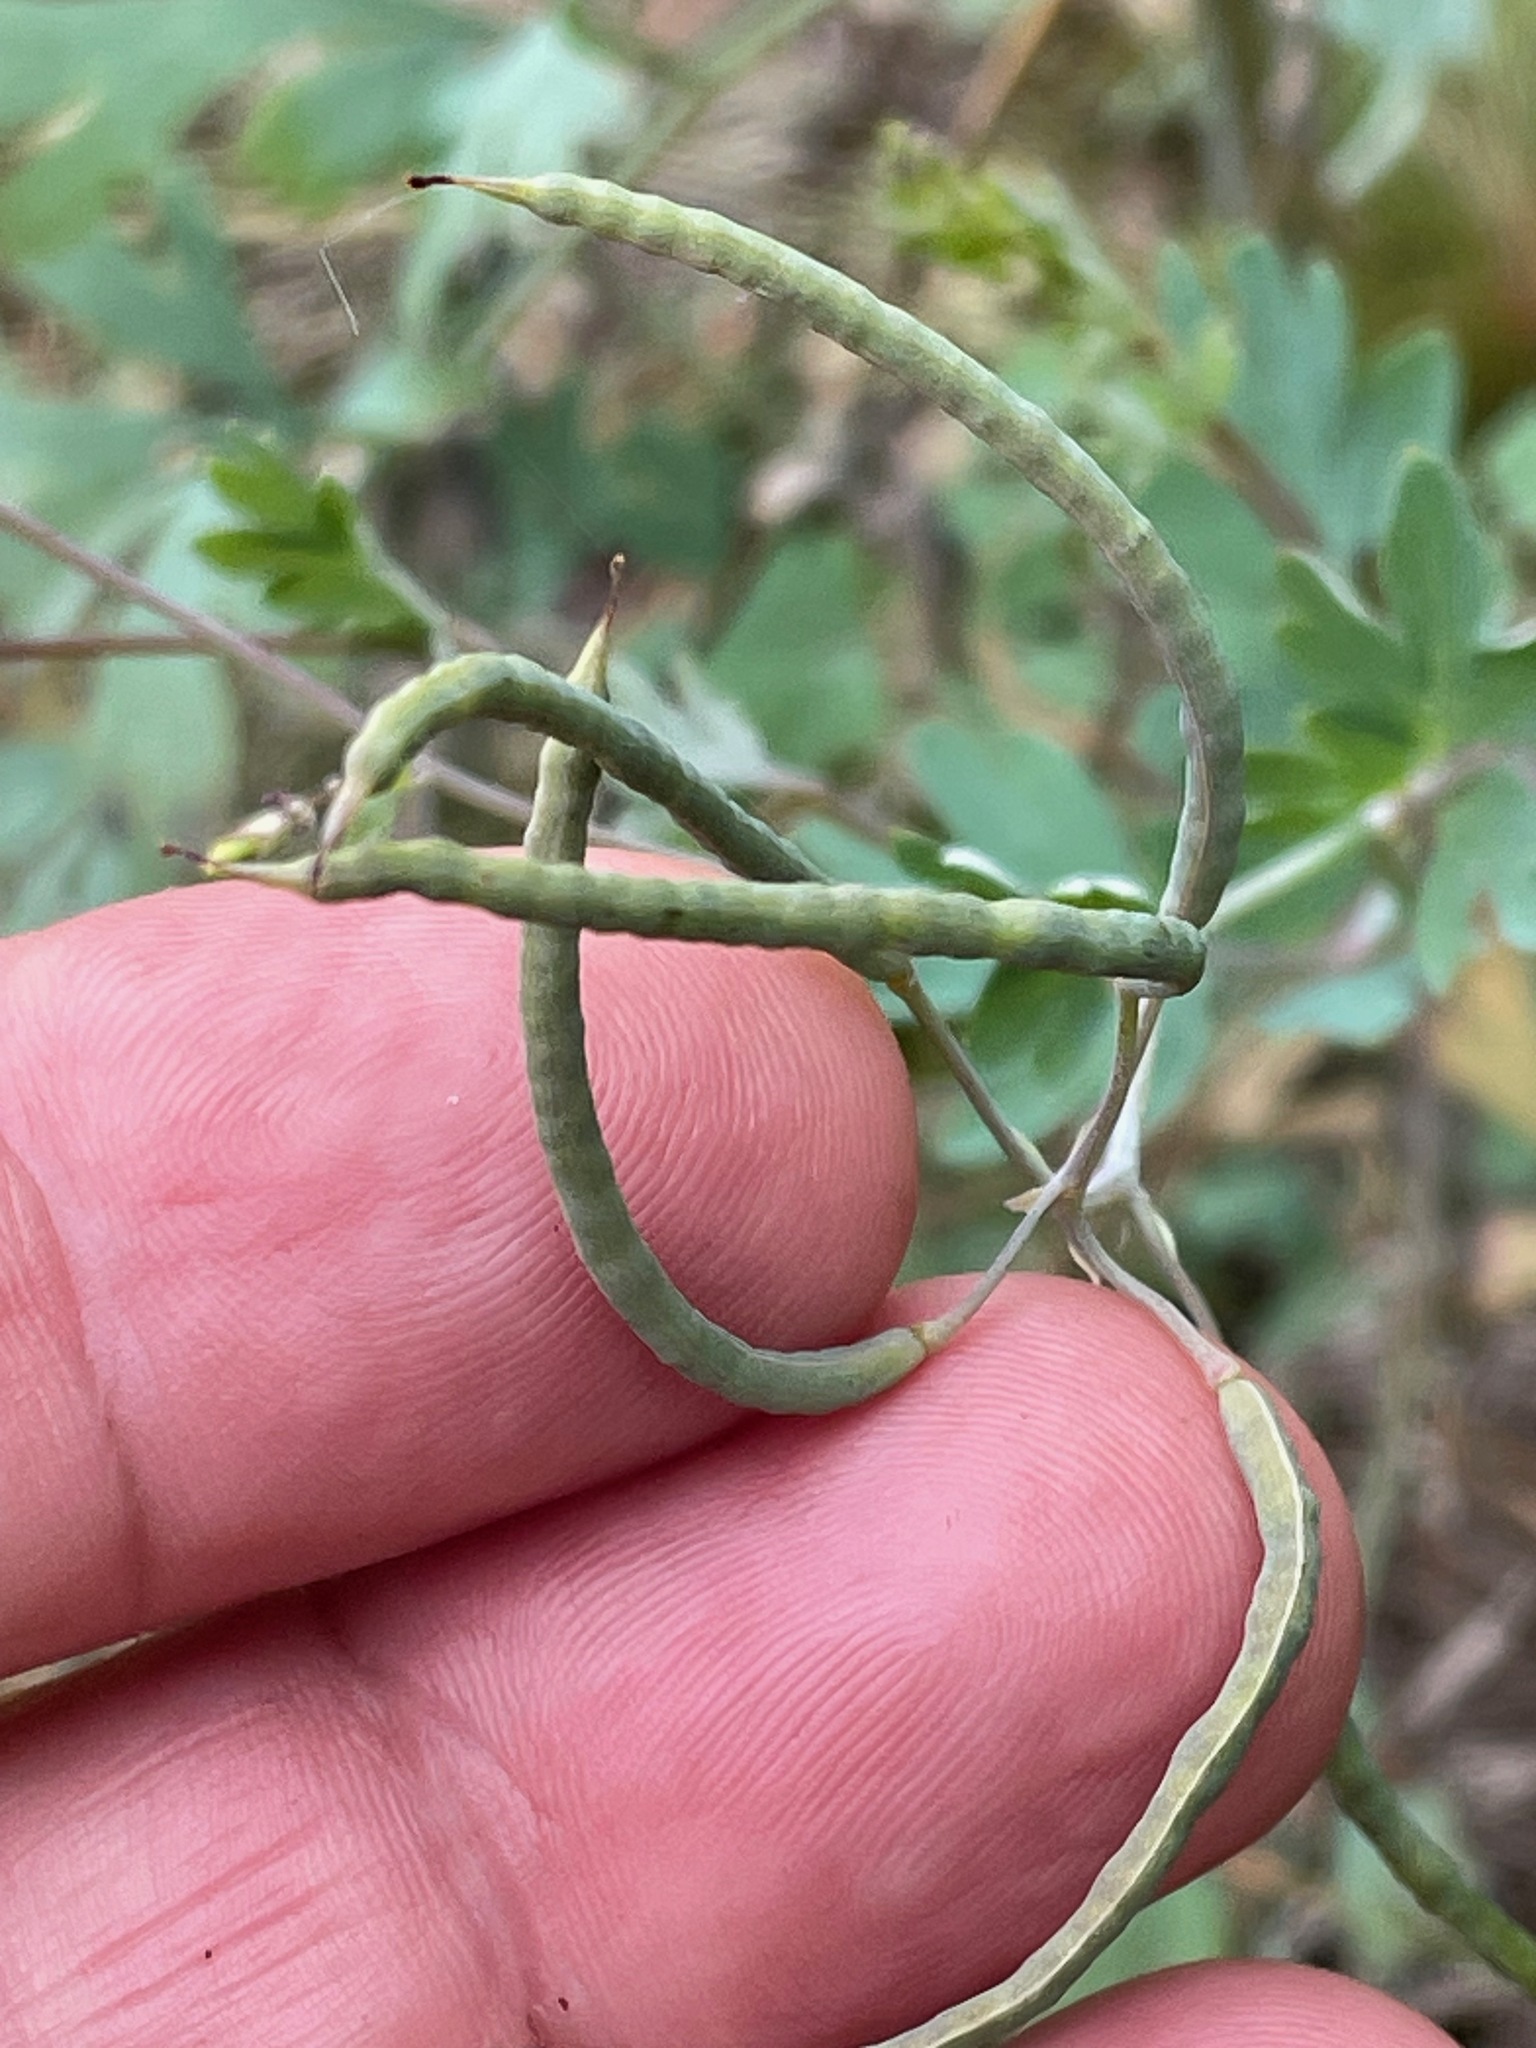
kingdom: Plantae
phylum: Tracheophyta
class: Magnoliopsida
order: Ranunculales
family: Papaveraceae
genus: Capnoides
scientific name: Capnoides sempervirens
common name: Rock harlequin
